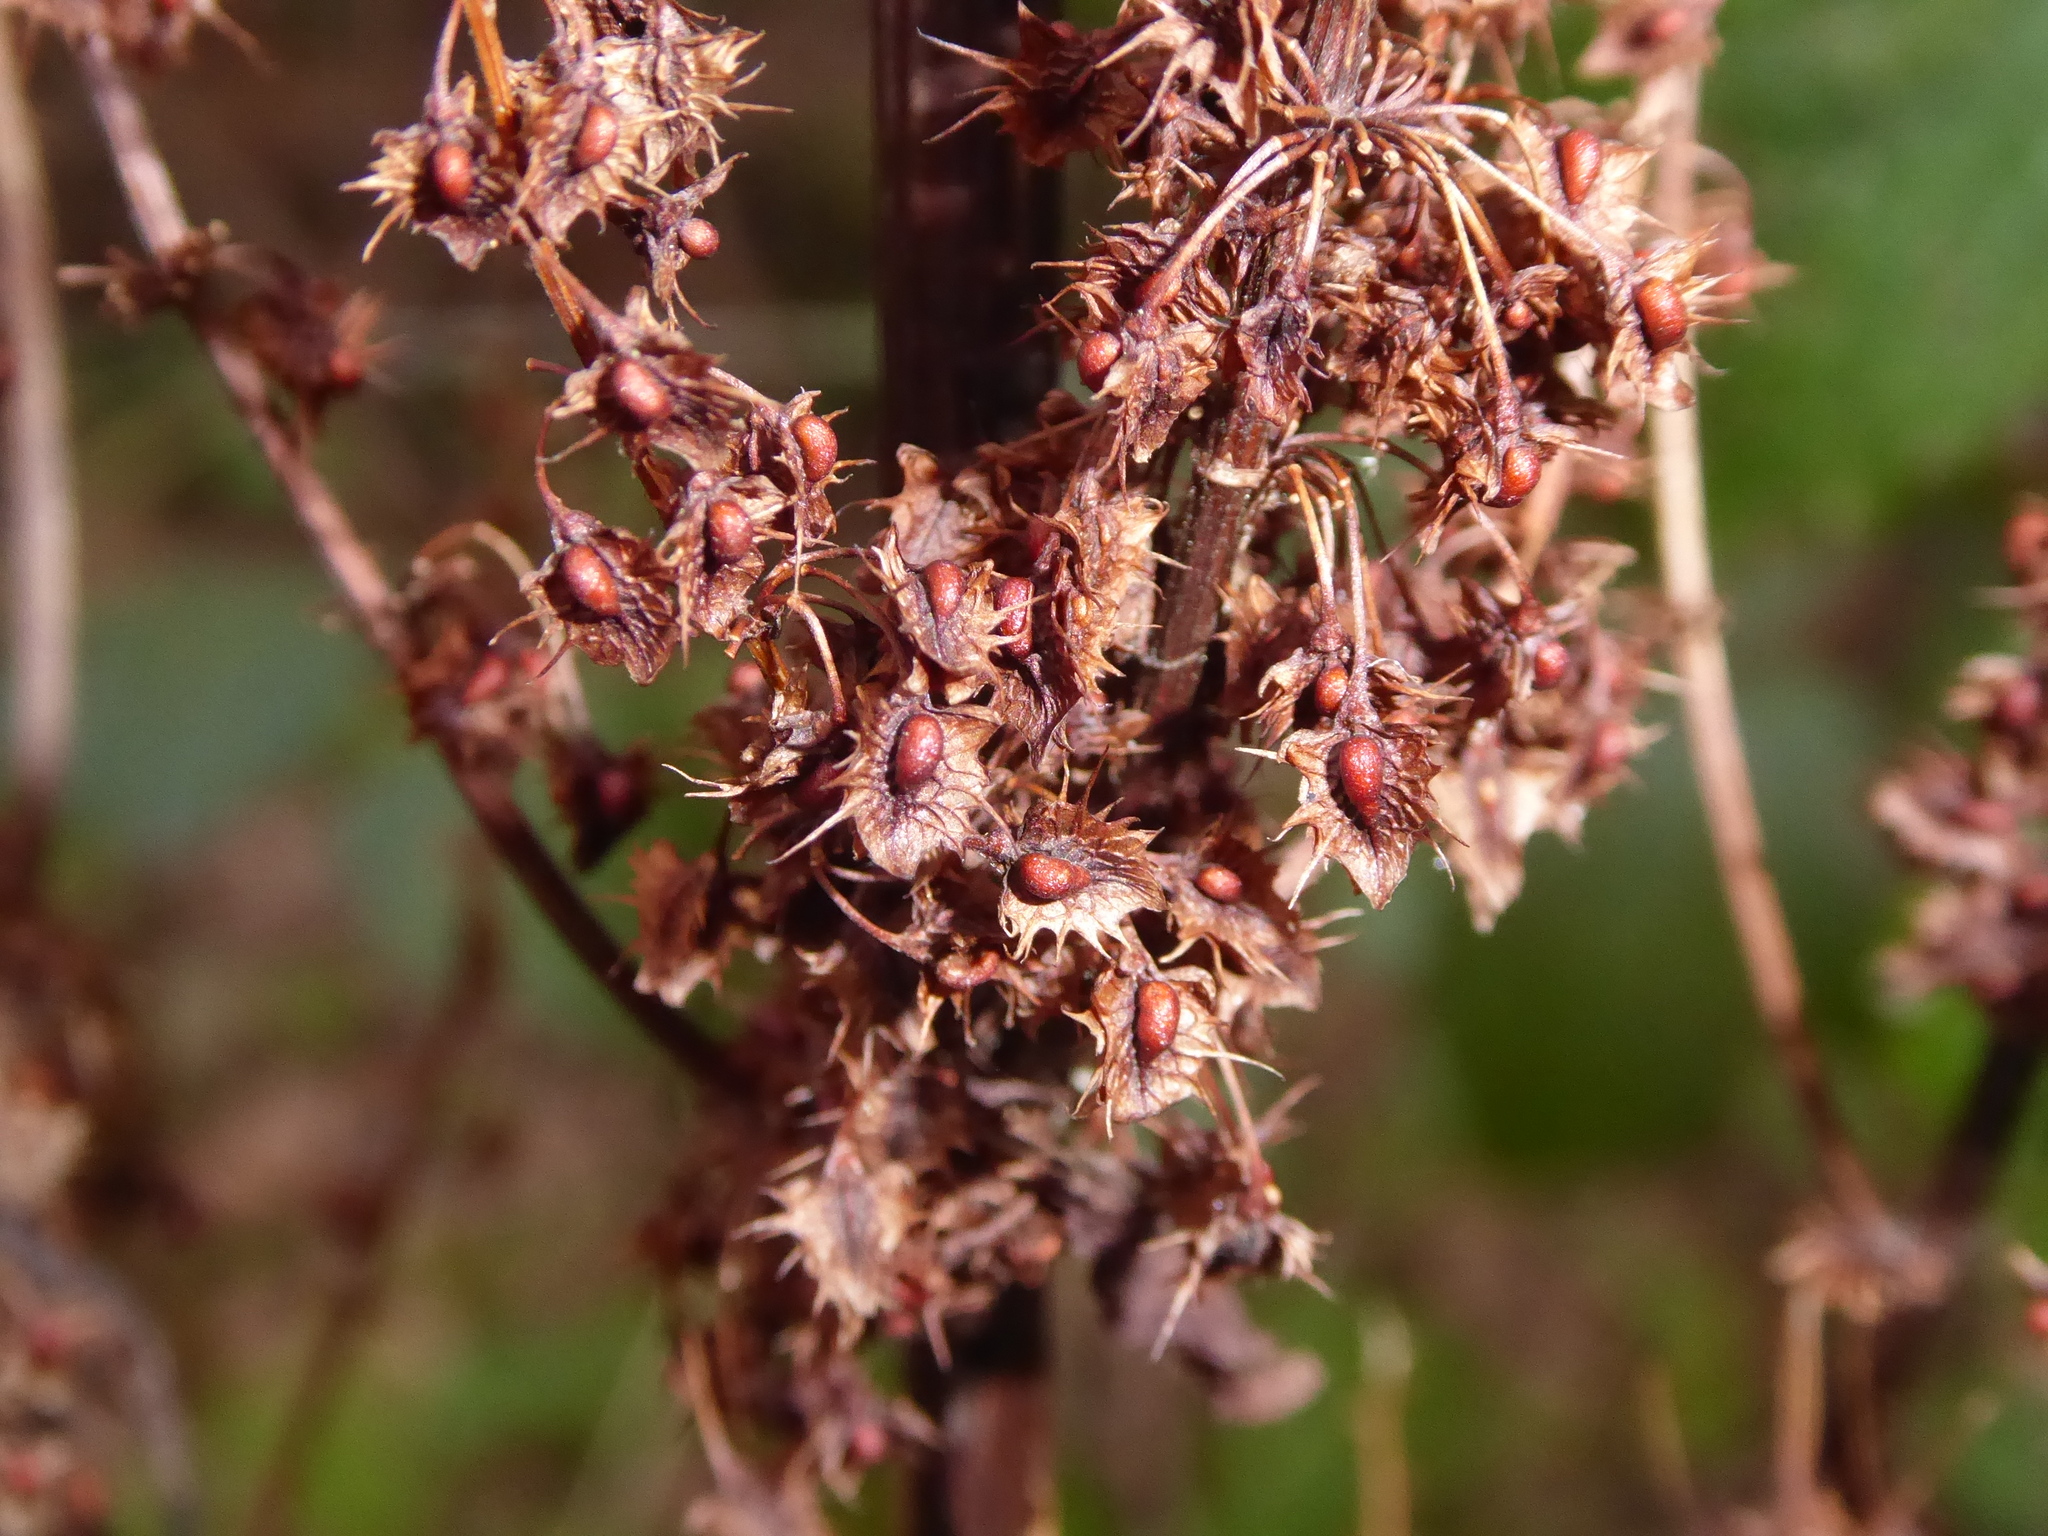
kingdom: Plantae
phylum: Tracheophyta
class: Magnoliopsida
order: Caryophyllales
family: Polygonaceae
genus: Rumex
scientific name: Rumex obtusifolius
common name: Bitter dock
